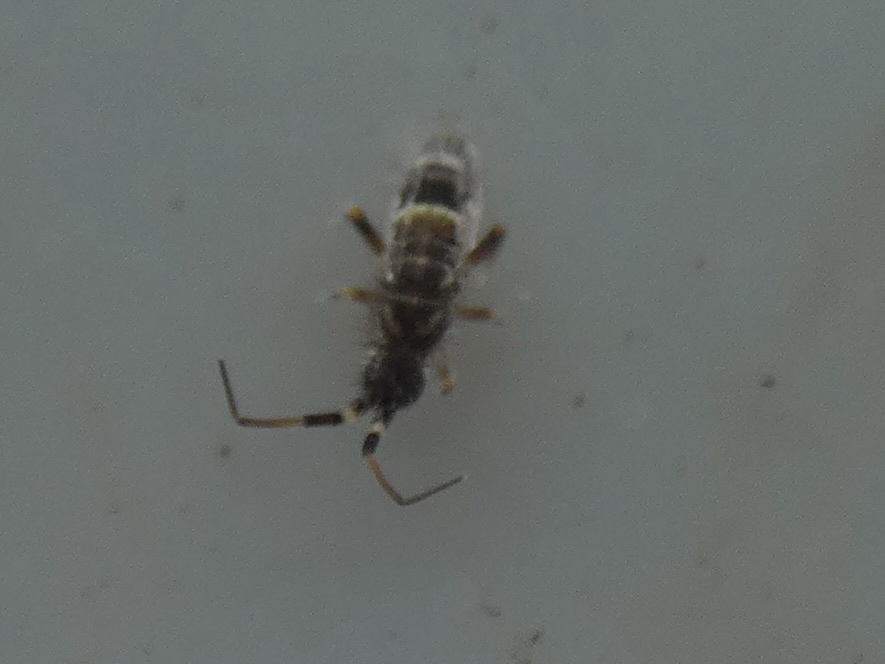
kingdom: Animalia
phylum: Arthropoda
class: Collembola
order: Entomobryomorpha
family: Orchesellidae
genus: Orchesella
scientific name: Orchesella cincta
